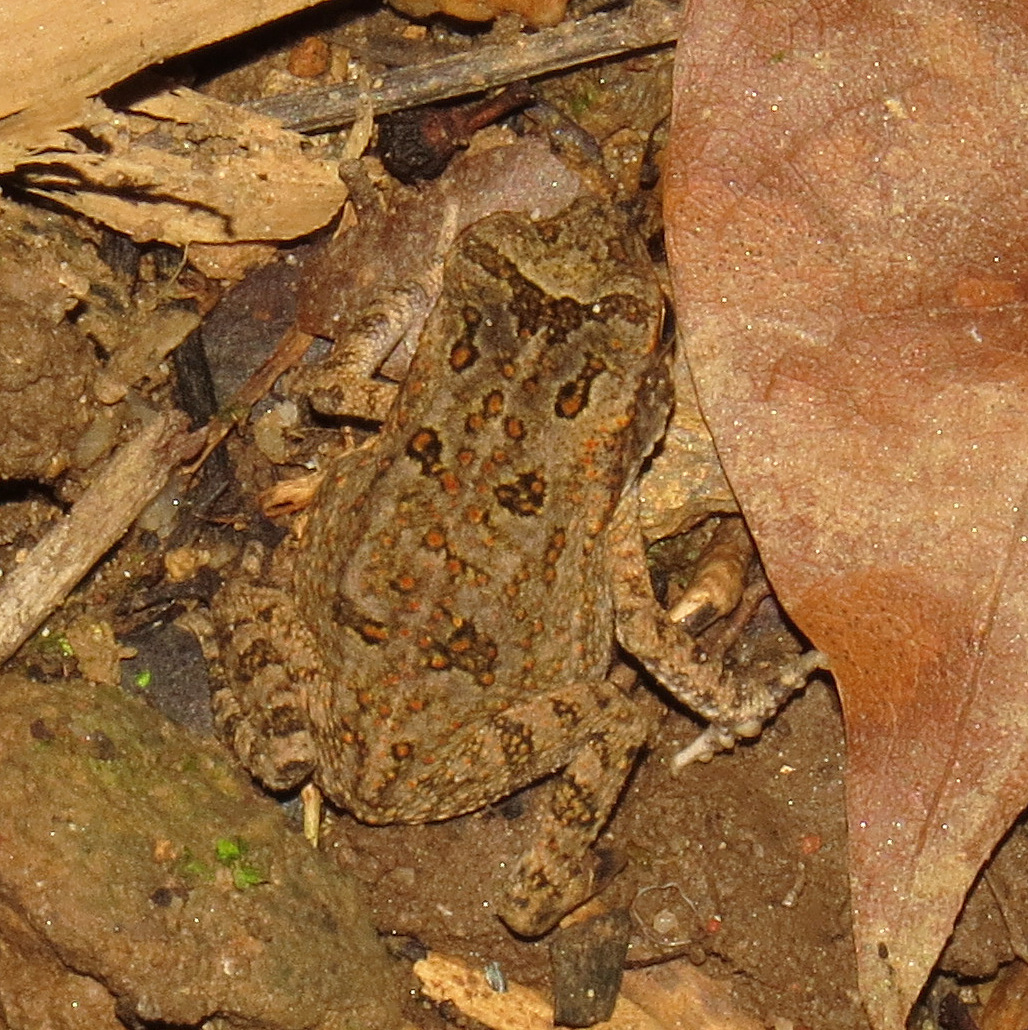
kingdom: Animalia
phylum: Chordata
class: Amphibia
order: Anura
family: Bufonidae
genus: Rhinella
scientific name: Rhinella marina
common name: Cane toad
